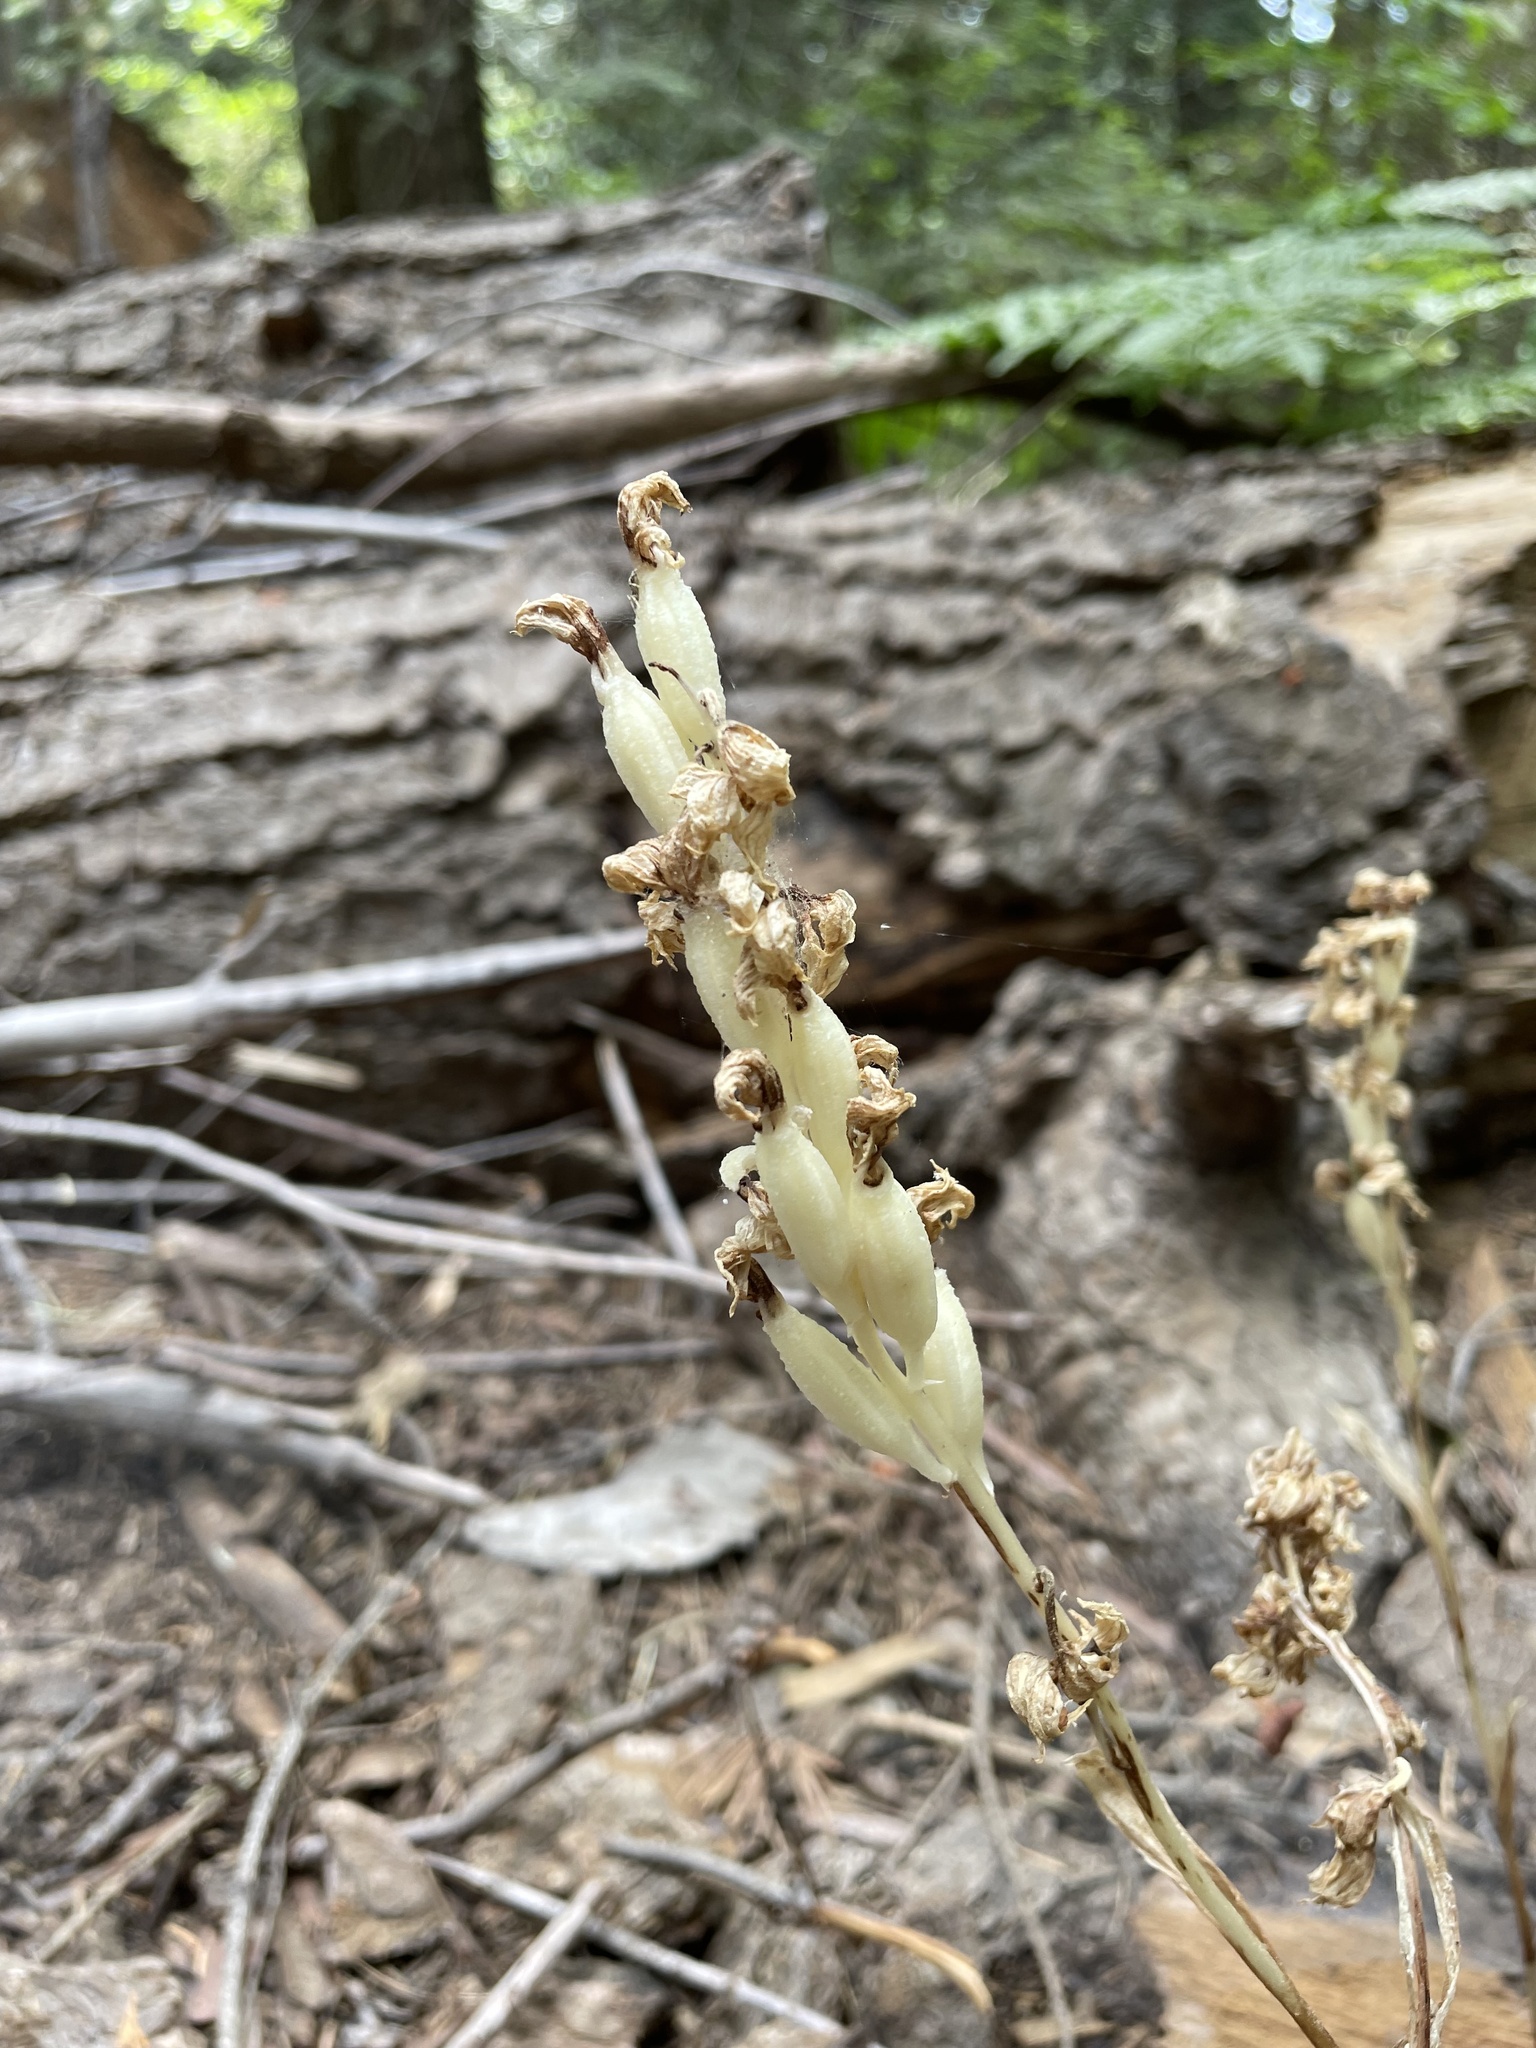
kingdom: Plantae
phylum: Tracheophyta
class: Liliopsida
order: Asparagales
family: Orchidaceae
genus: Cephalanthera
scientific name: Cephalanthera austiniae
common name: Phantom orchid
